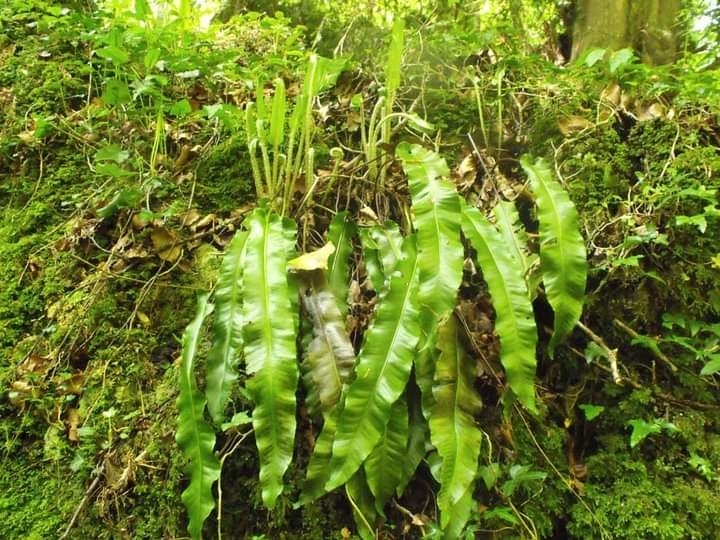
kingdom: Plantae
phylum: Tracheophyta
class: Polypodiopsida
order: Polypodiales
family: Aspleniaceae
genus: Asplenium
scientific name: Asplenium scolopendrium
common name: Hart's-tongue fern
